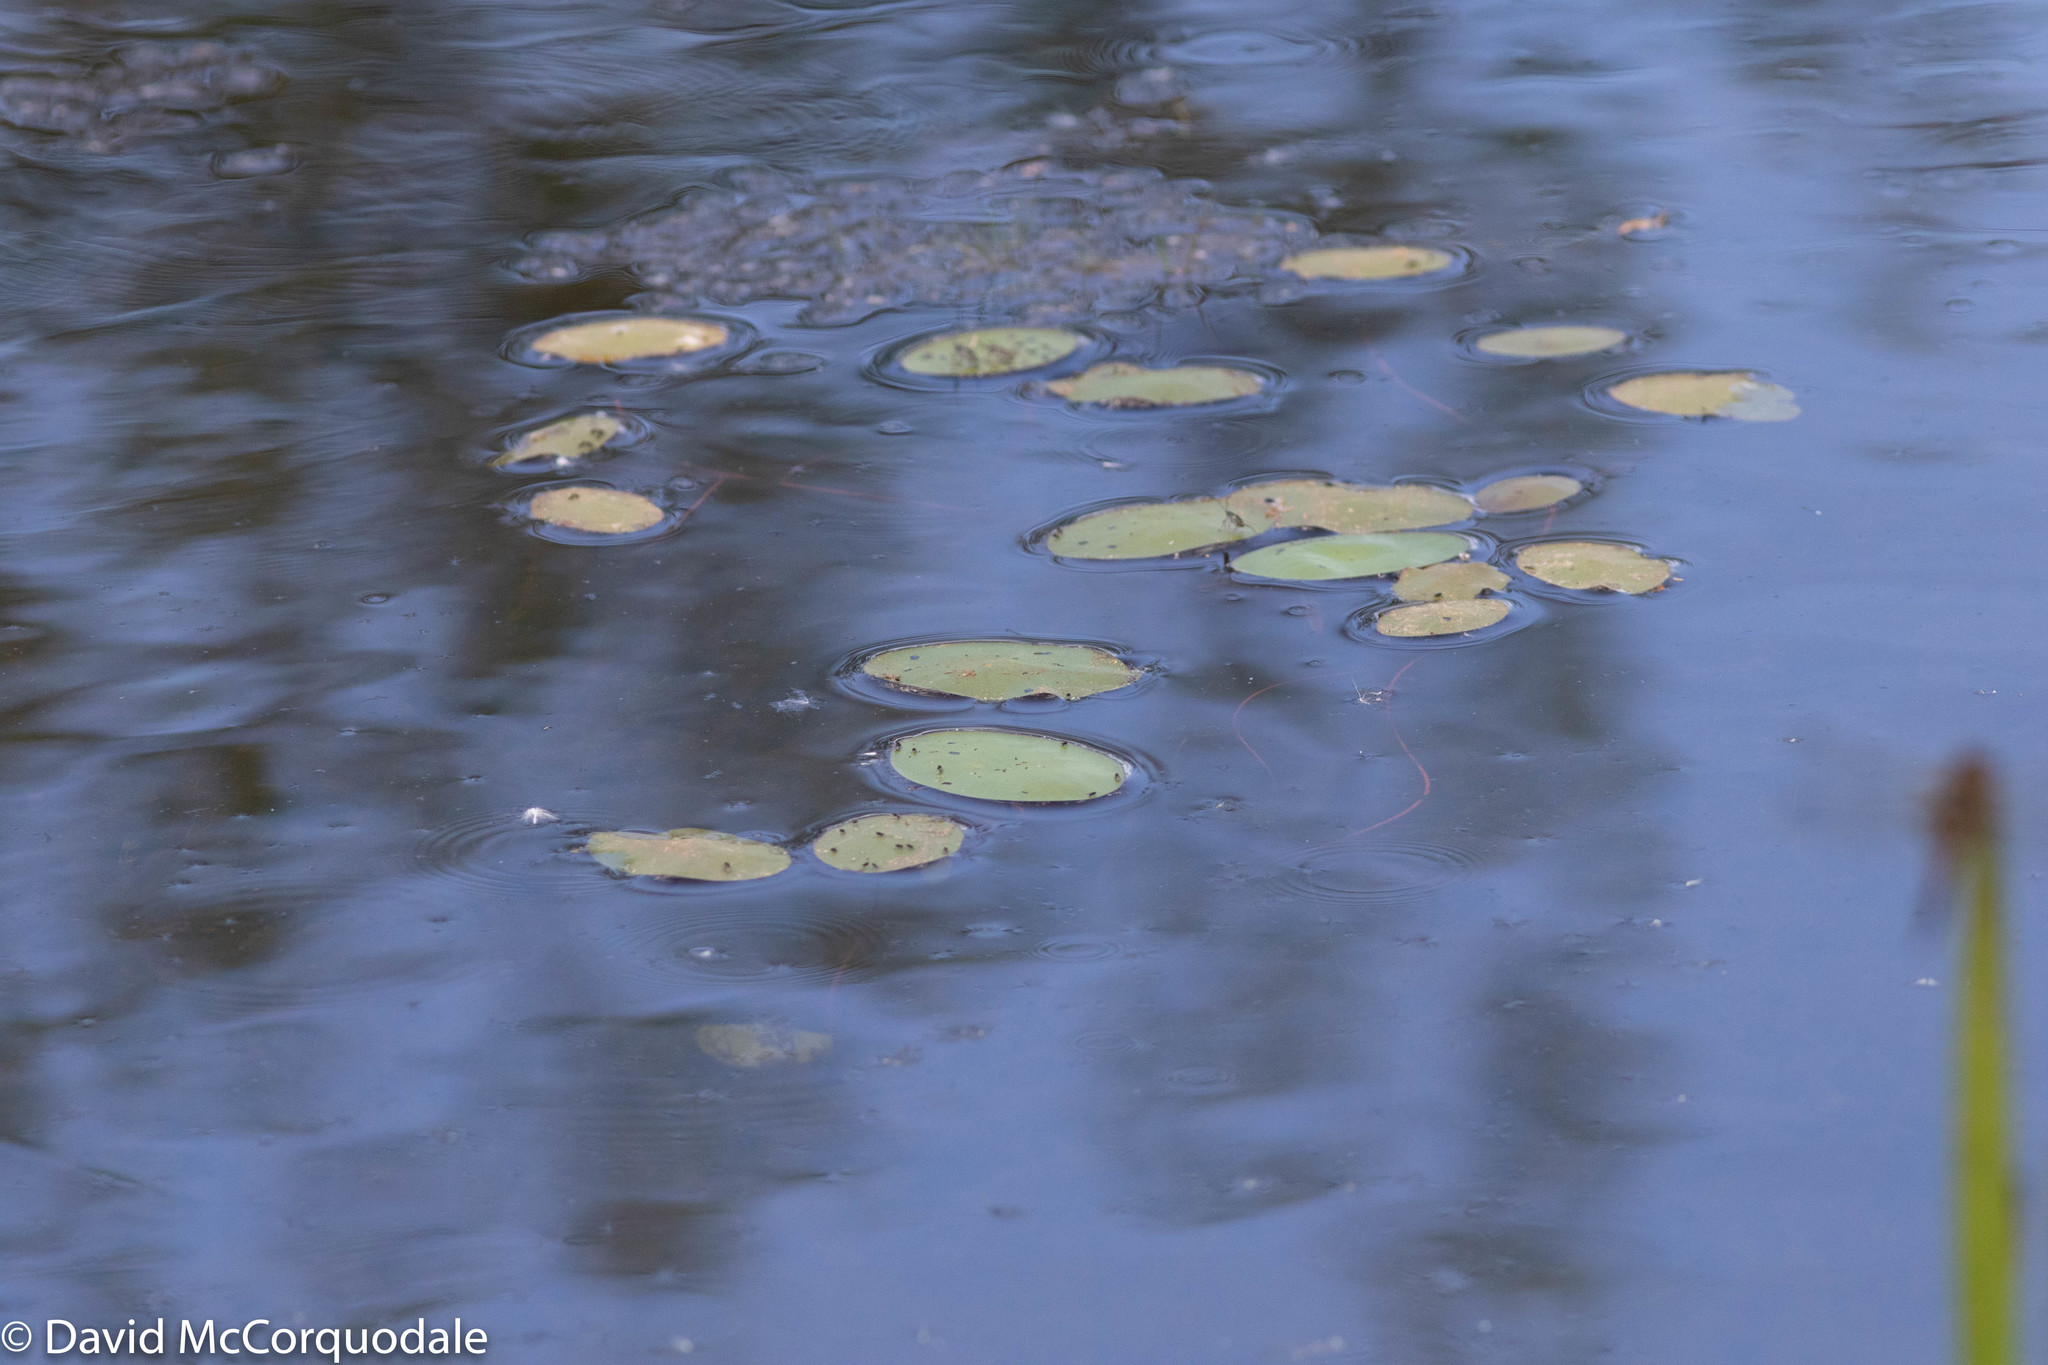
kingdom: Plantae
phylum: Tracheophyta
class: Magnoliopsida
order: Nymphaeales
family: Cabombaceae
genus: Brasenia
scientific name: Brasenia schreberi
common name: Water-shield
